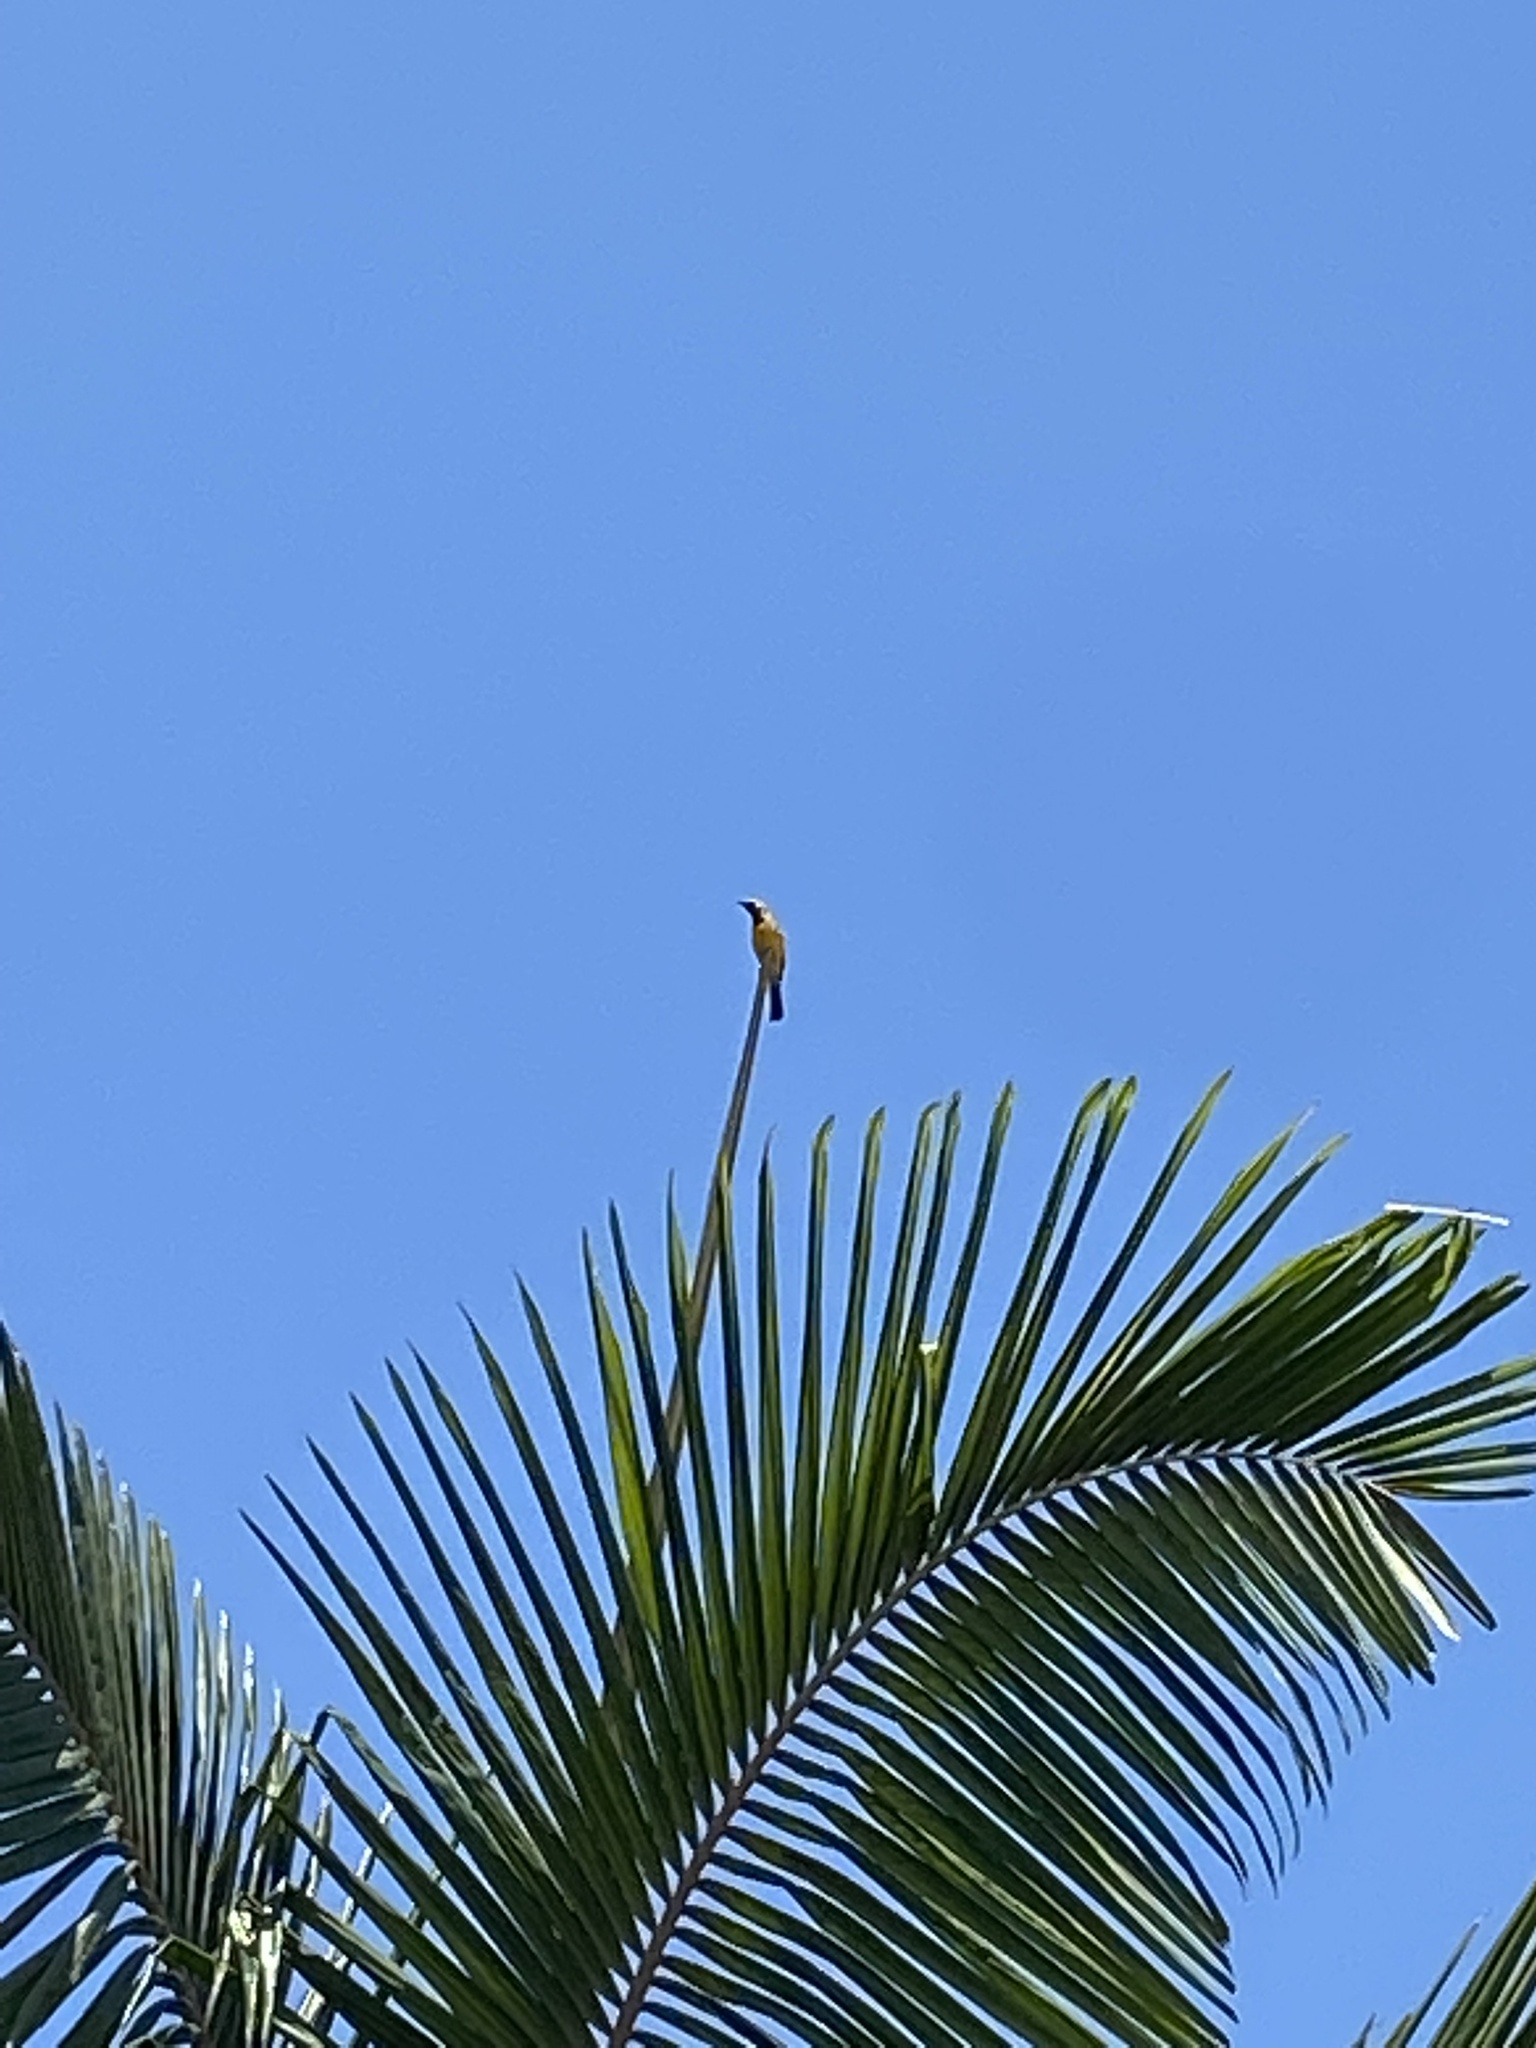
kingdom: Animalia
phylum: Chordata
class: Aves
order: Passeriformes
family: Icteridae
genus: Icterus
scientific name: Icterus cucullatus
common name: Hooded oriole
